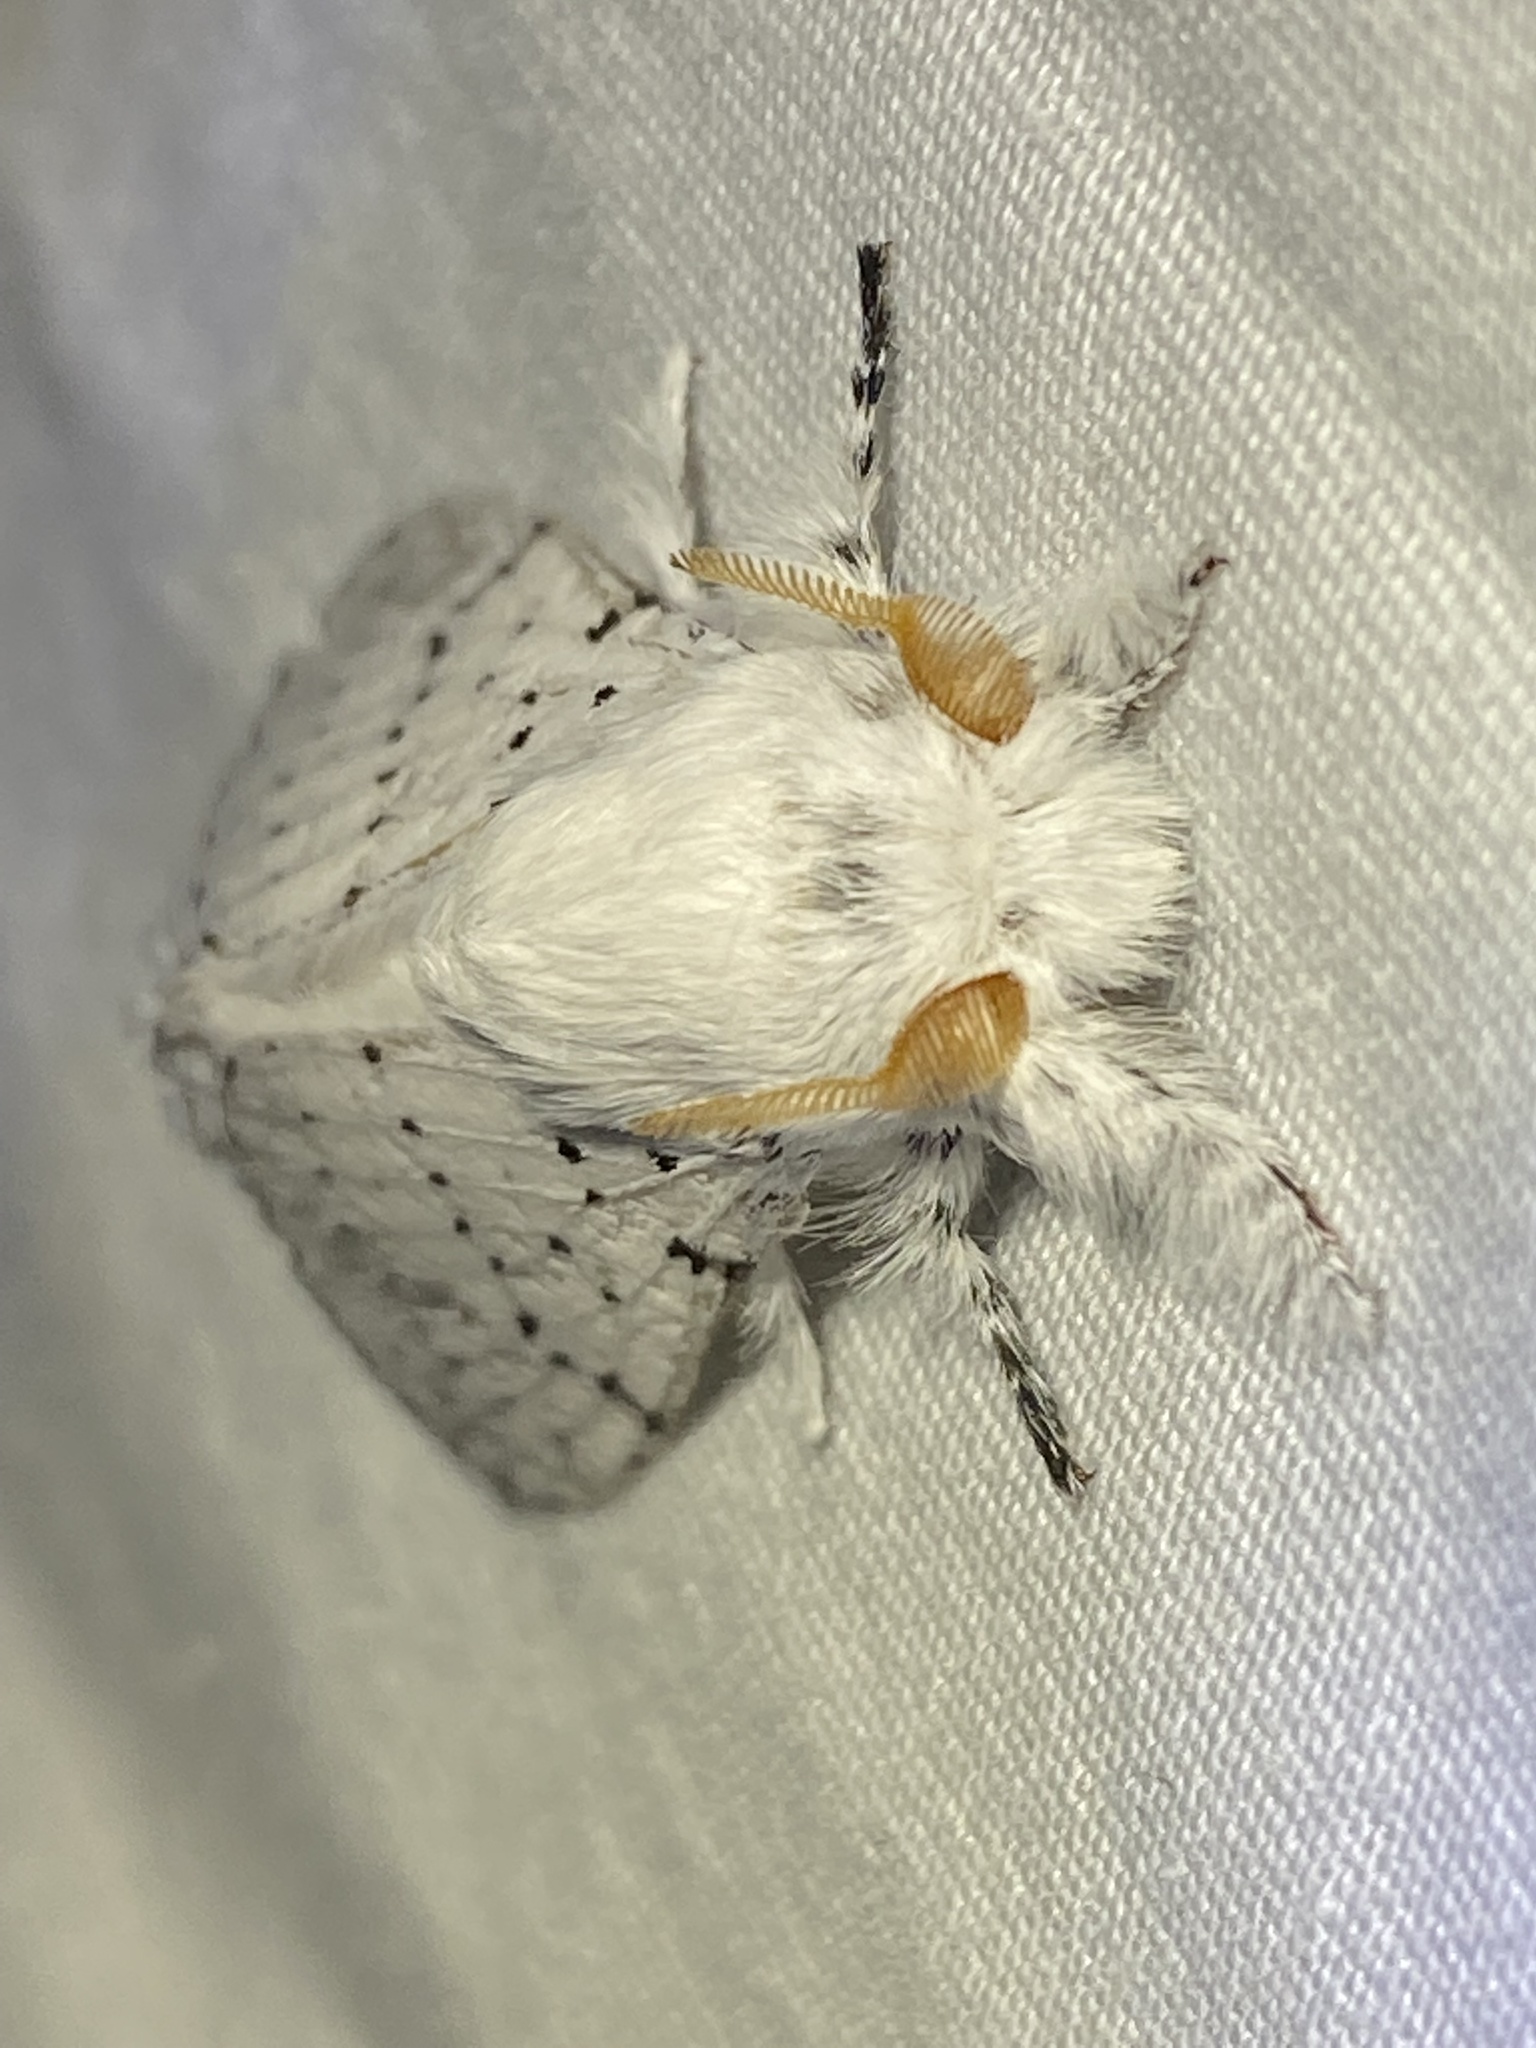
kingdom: Animalia
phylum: Arthropoda
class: Insecta
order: Lepidoptera
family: Lasiocampidae
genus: Artace
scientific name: Artace cribrarius
